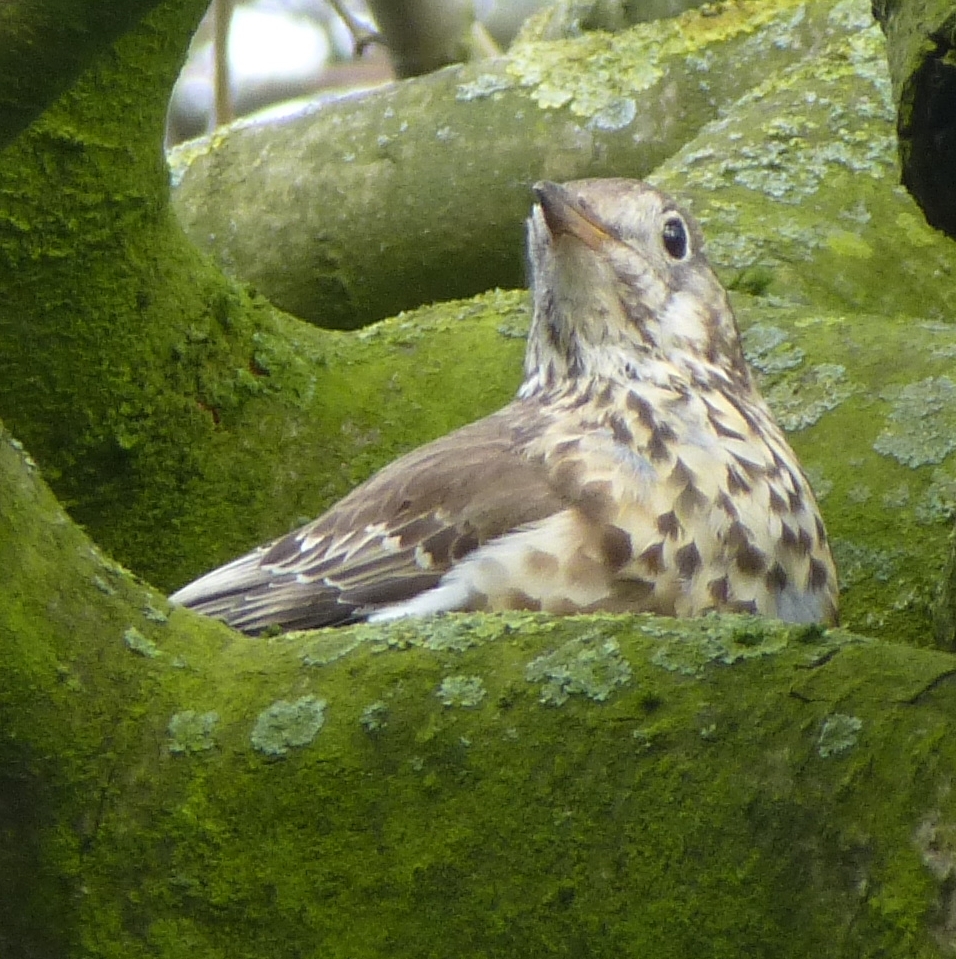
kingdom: Animalia
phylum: Chordata
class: Aves
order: Passeriformes
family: Turdidae
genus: Turdus
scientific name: Turdus viscivorus
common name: Mistle thrush
